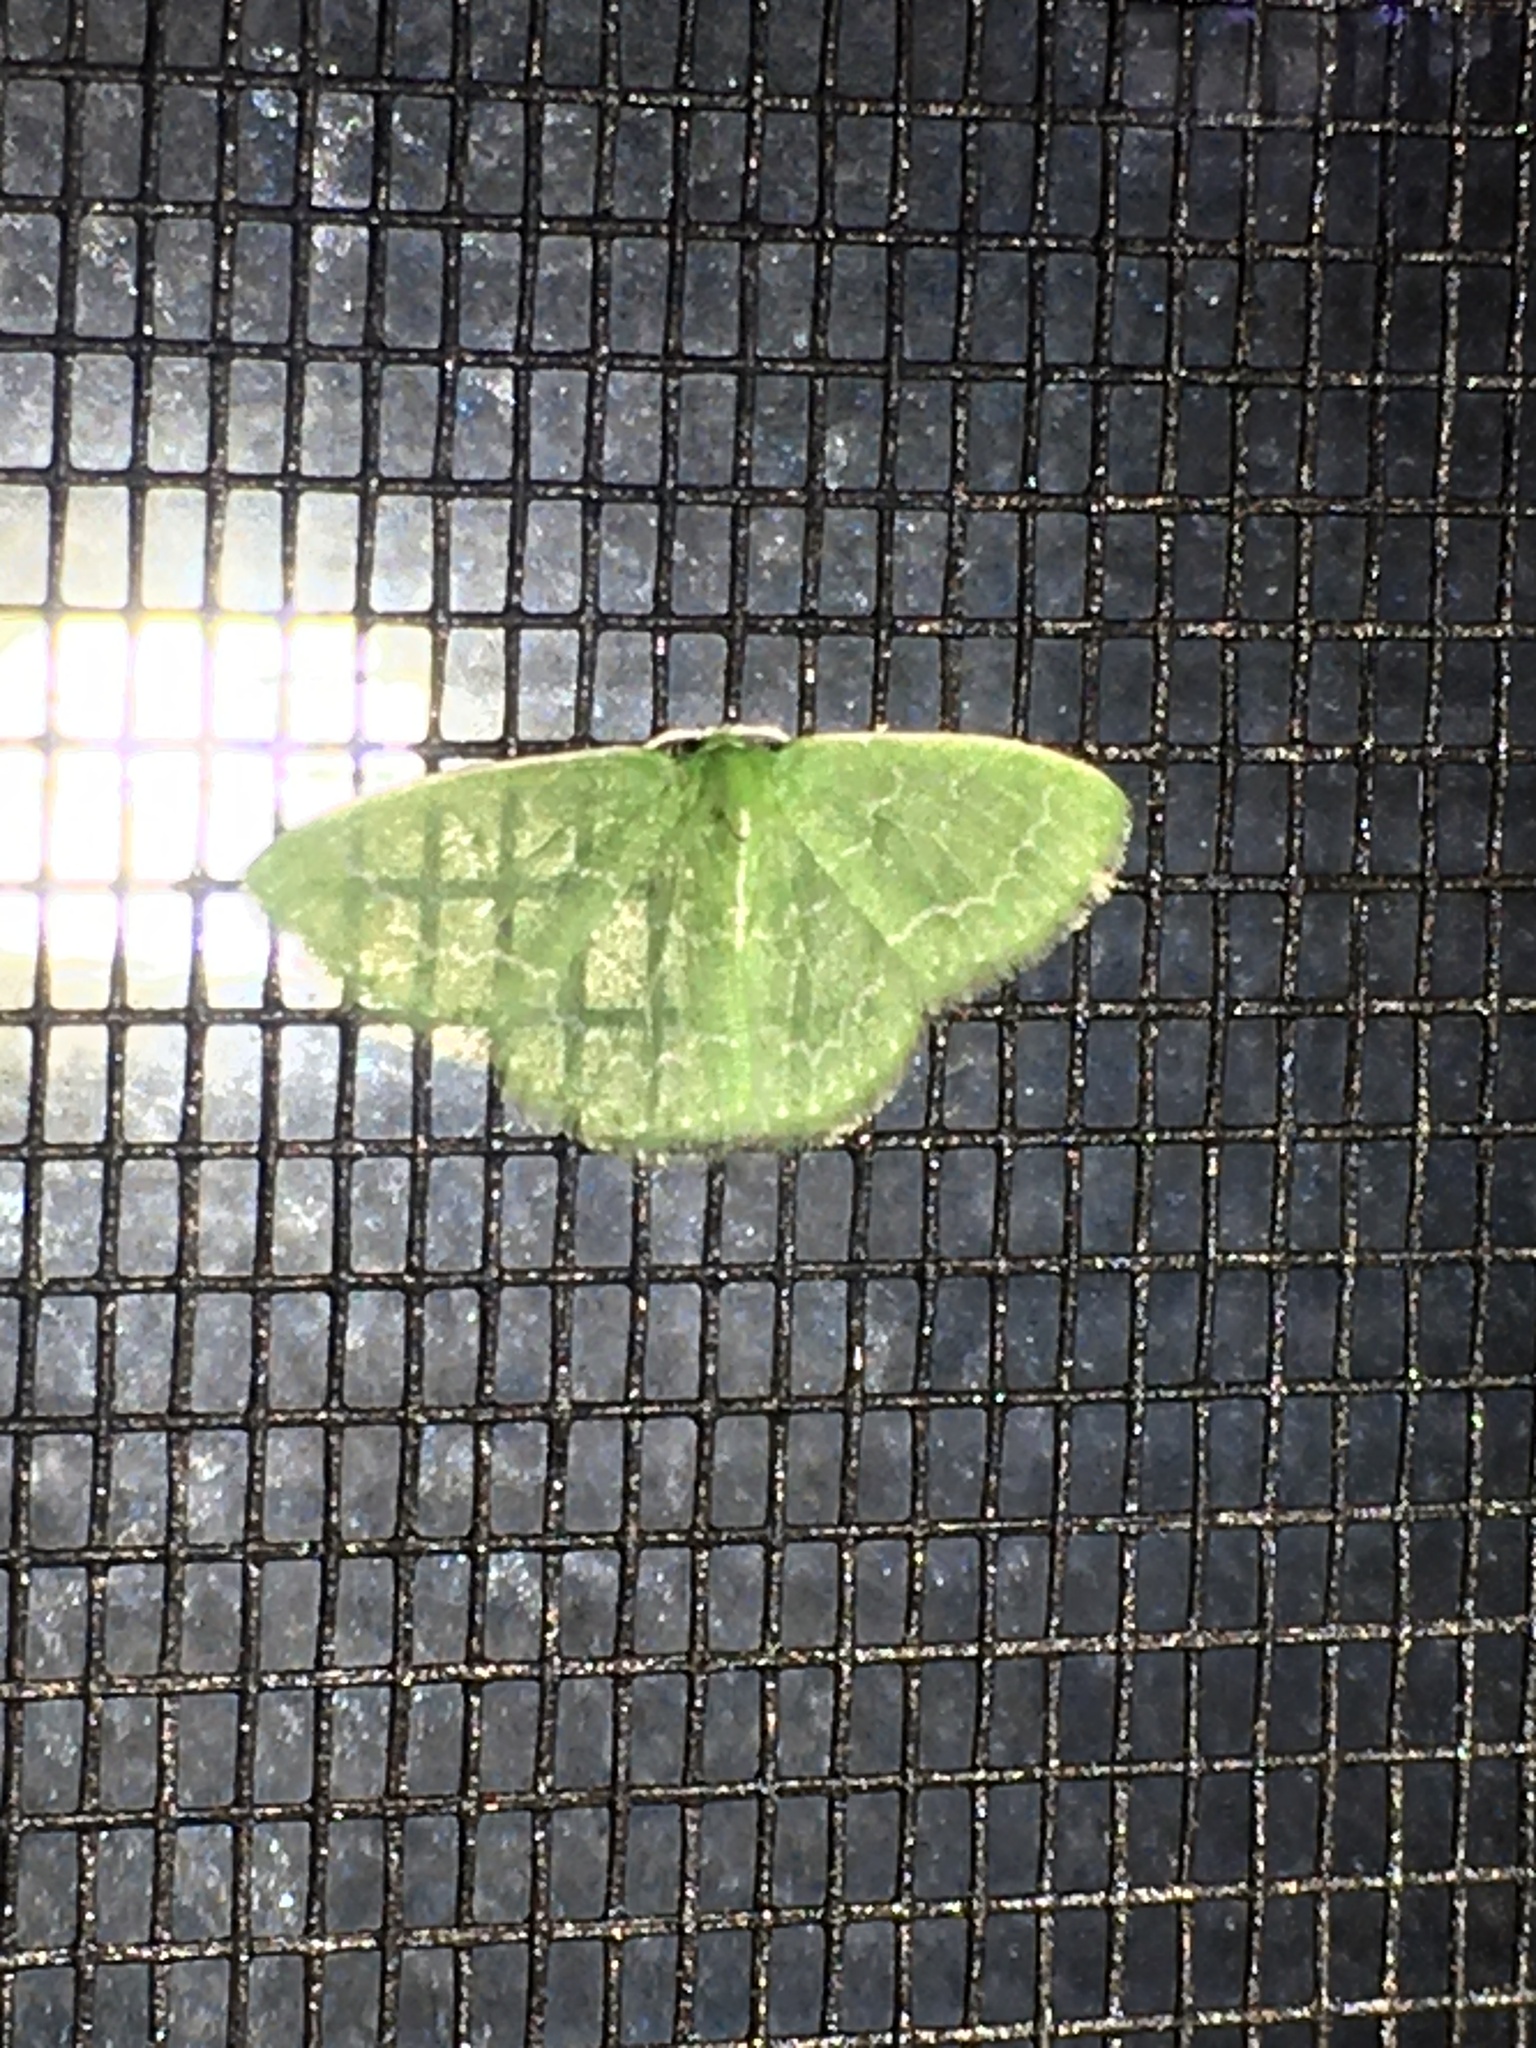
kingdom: Animalia
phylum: Arthropoda
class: Insecta
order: Lepidoptera
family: Geometridae
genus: Synchlora
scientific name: Synchlora
